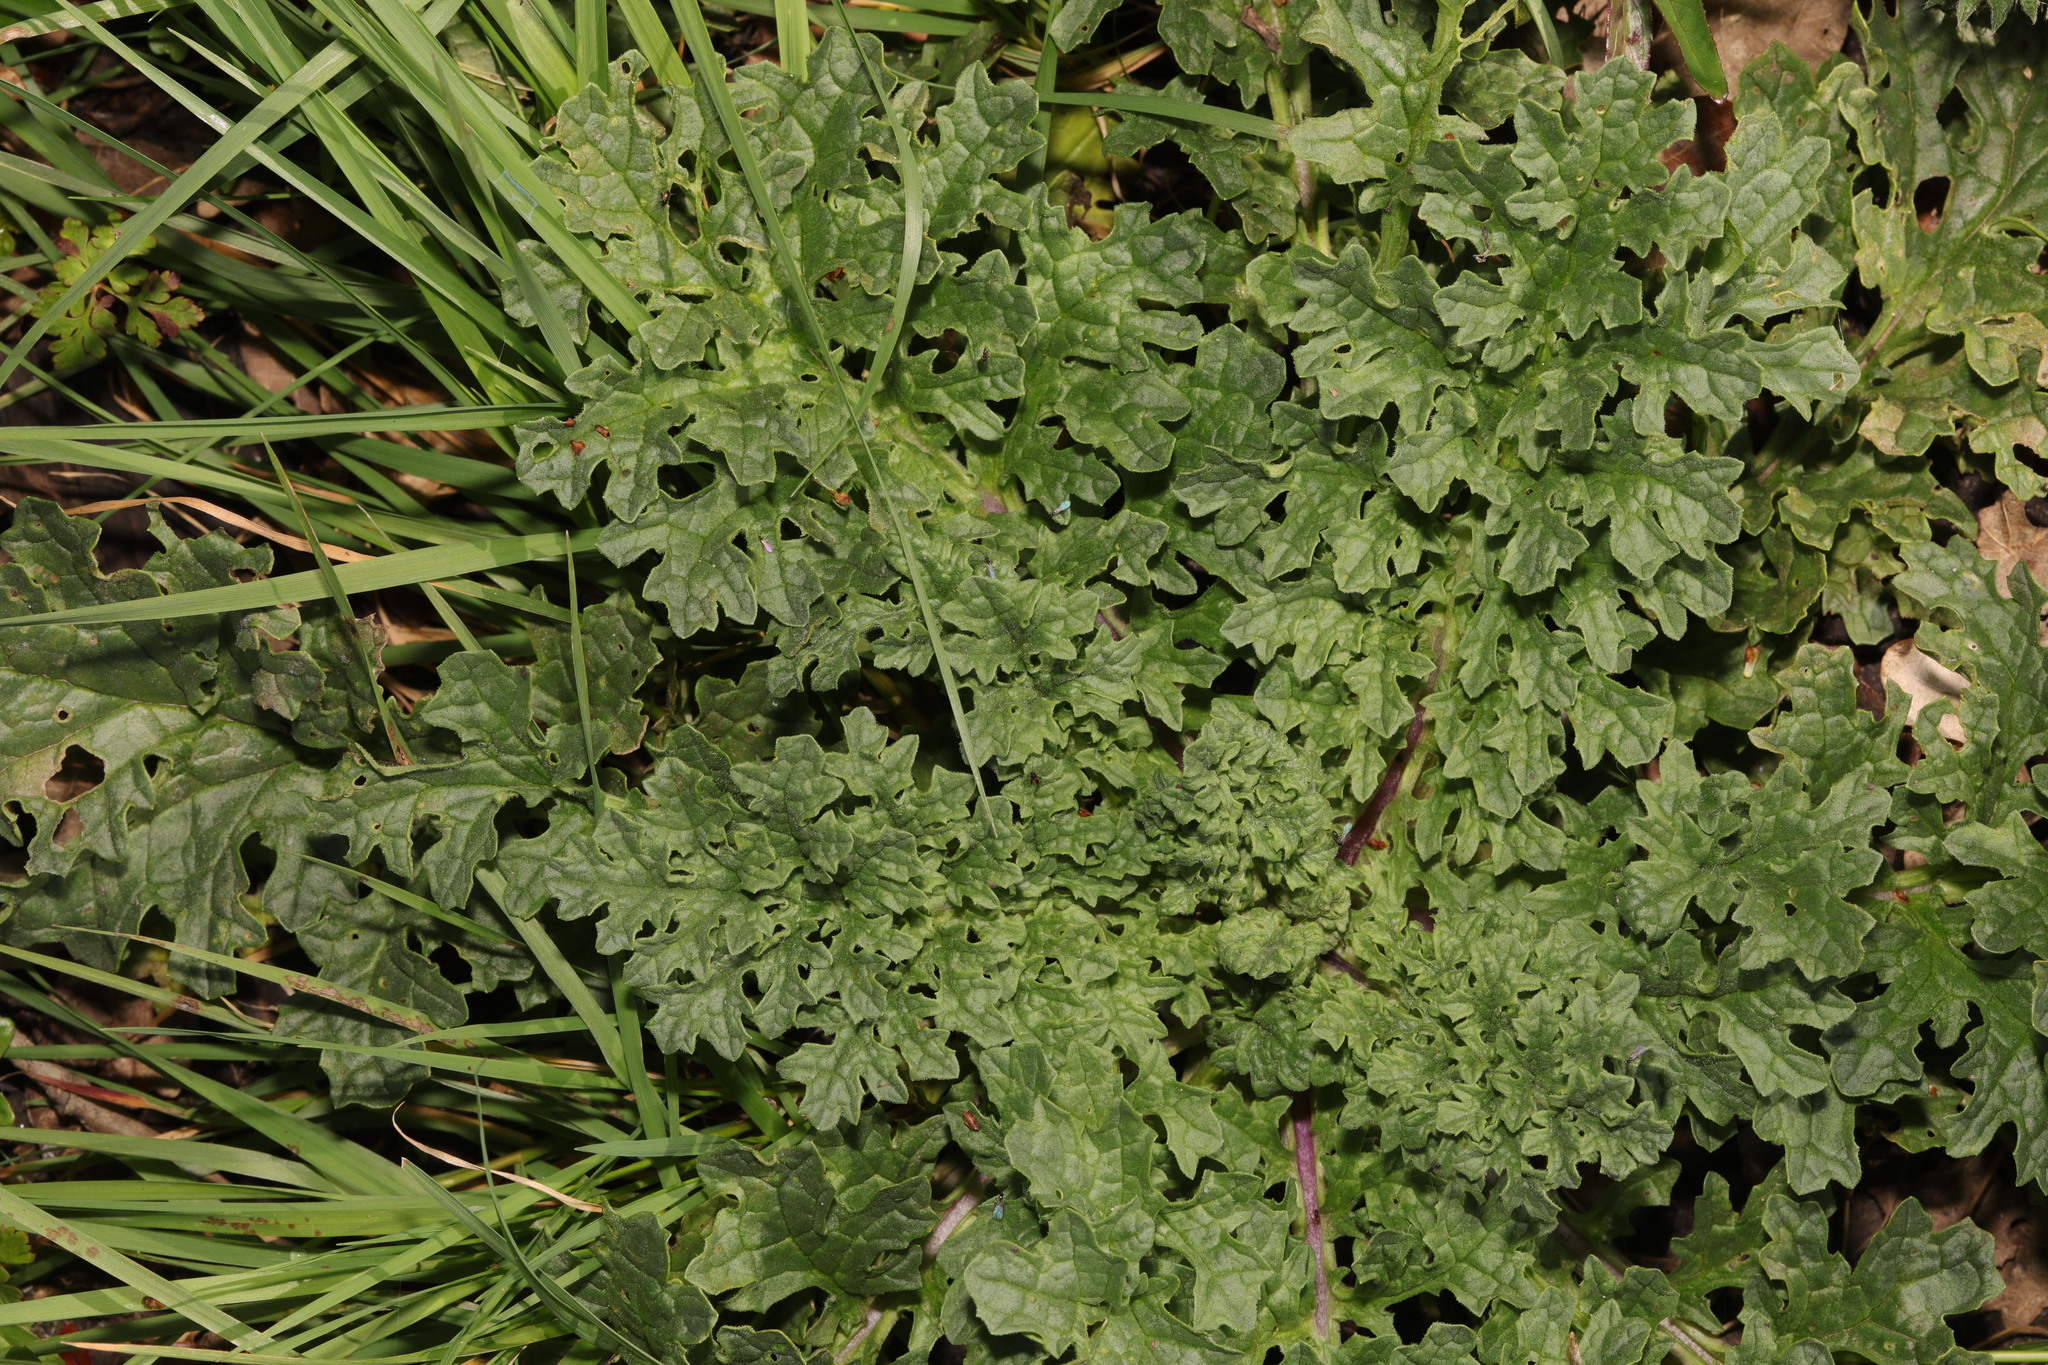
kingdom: Plantae
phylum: Tracheophyta
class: Magnoliopsida
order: Asterales
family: Asteraceae
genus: Jacobaea
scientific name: Jacobaea vulgaris
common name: Stinking willie
